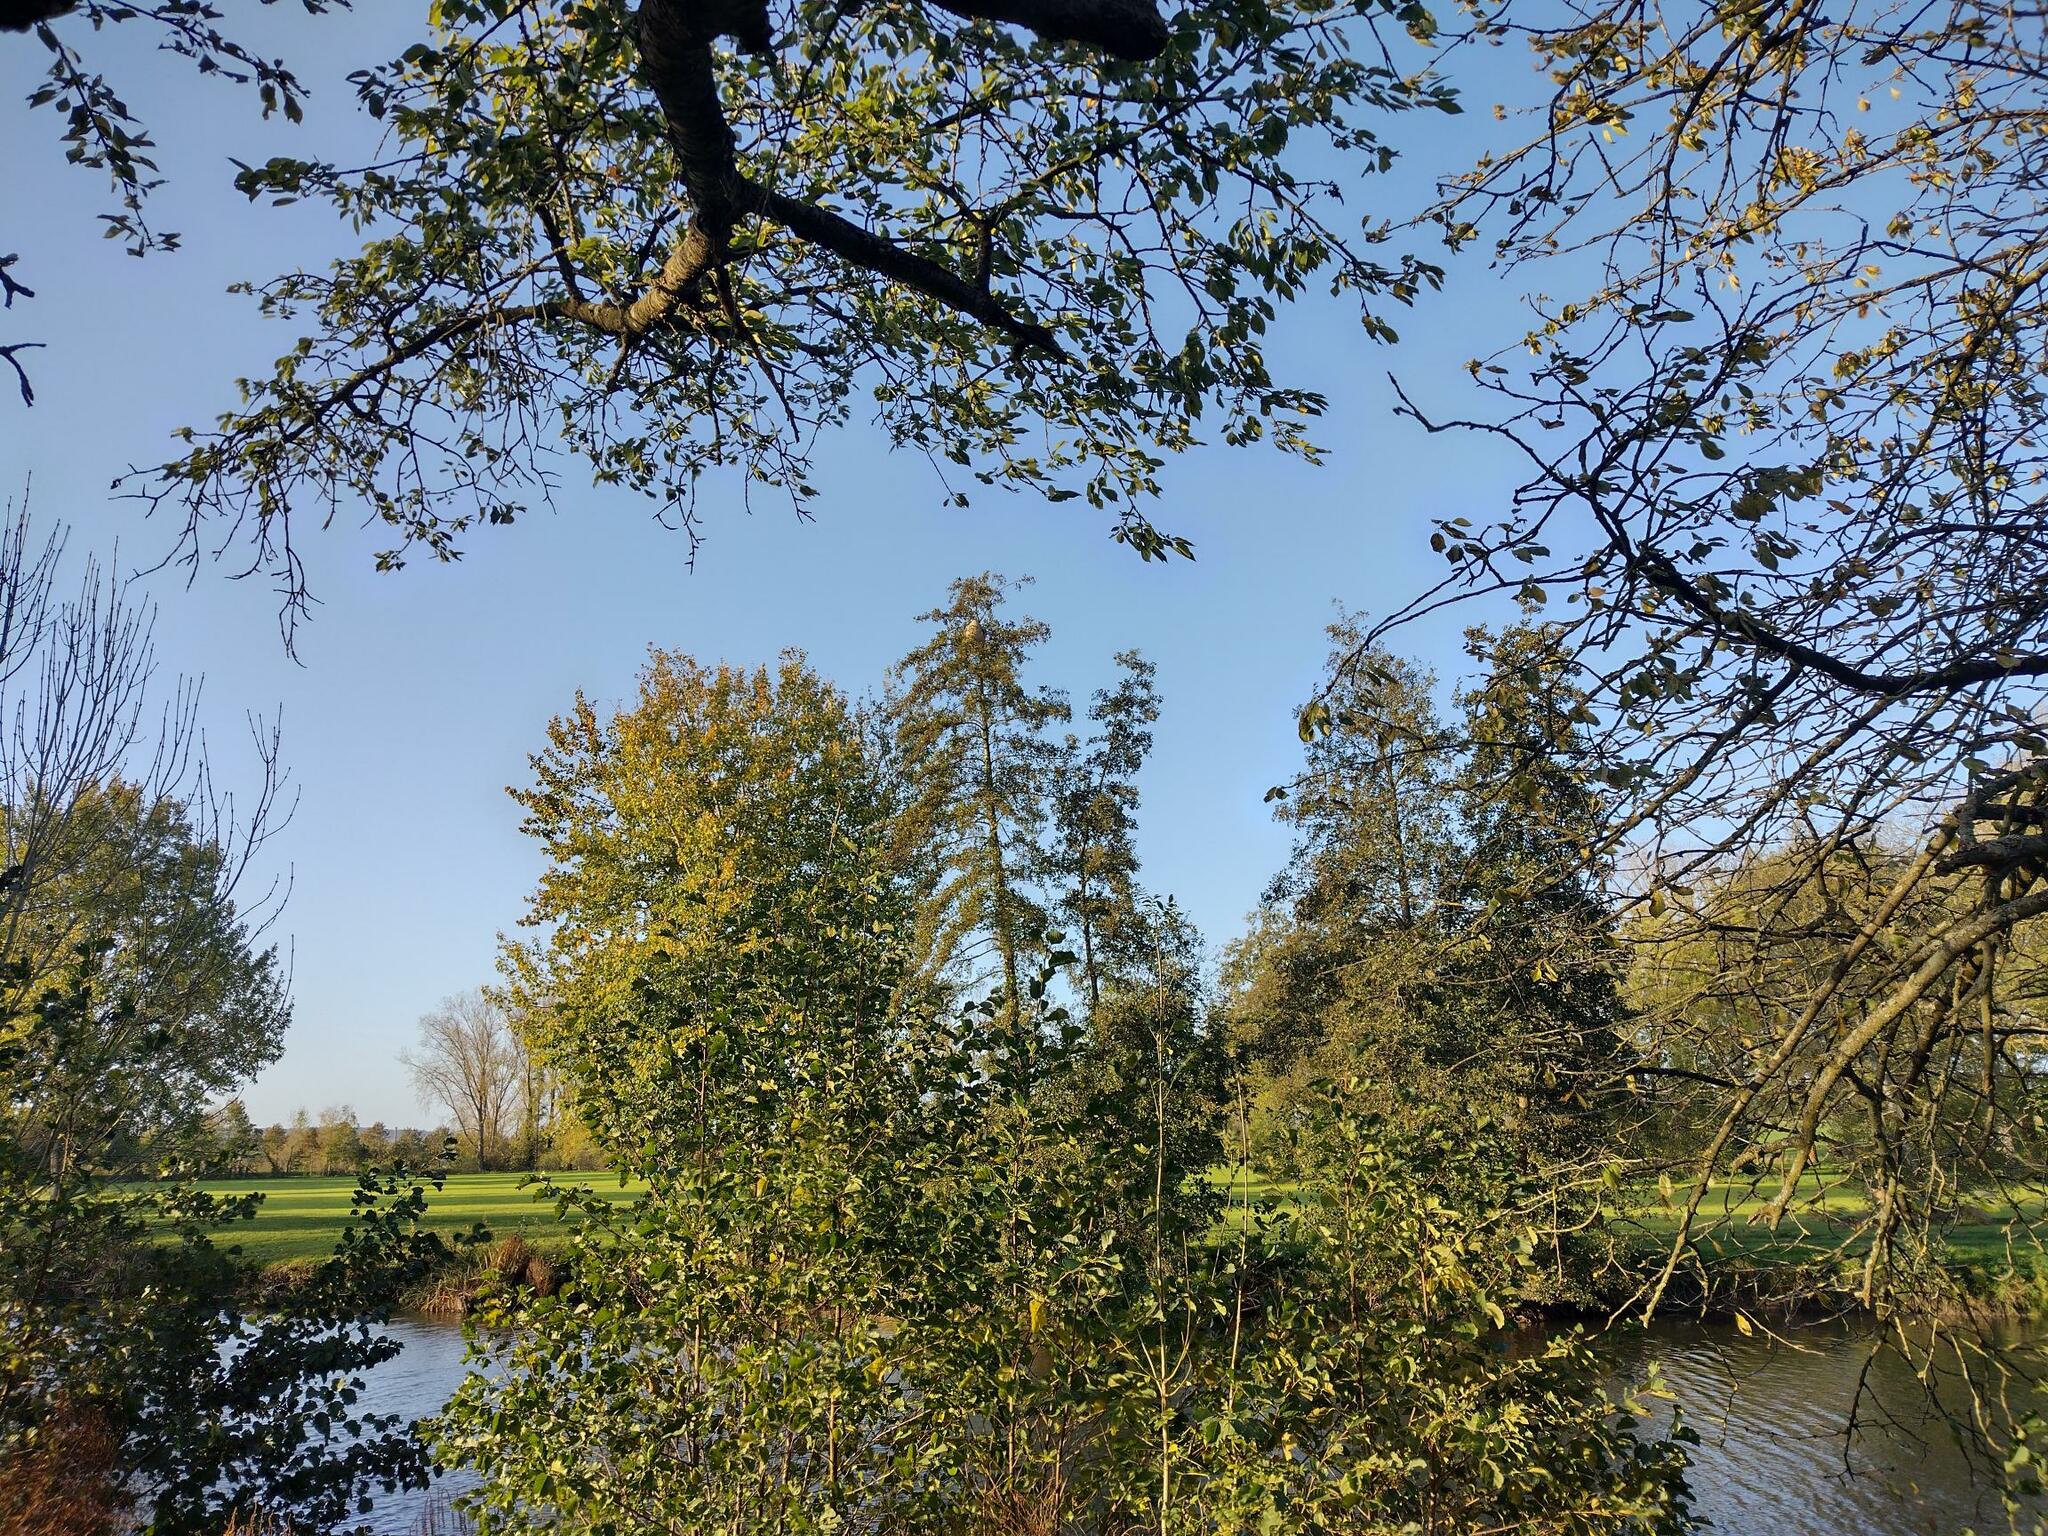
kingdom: Animalia
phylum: Arthropoda
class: Insecta
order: Hymenoptera
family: Vespidae
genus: Vespa
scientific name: Vespa velutina
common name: Asian hornet
